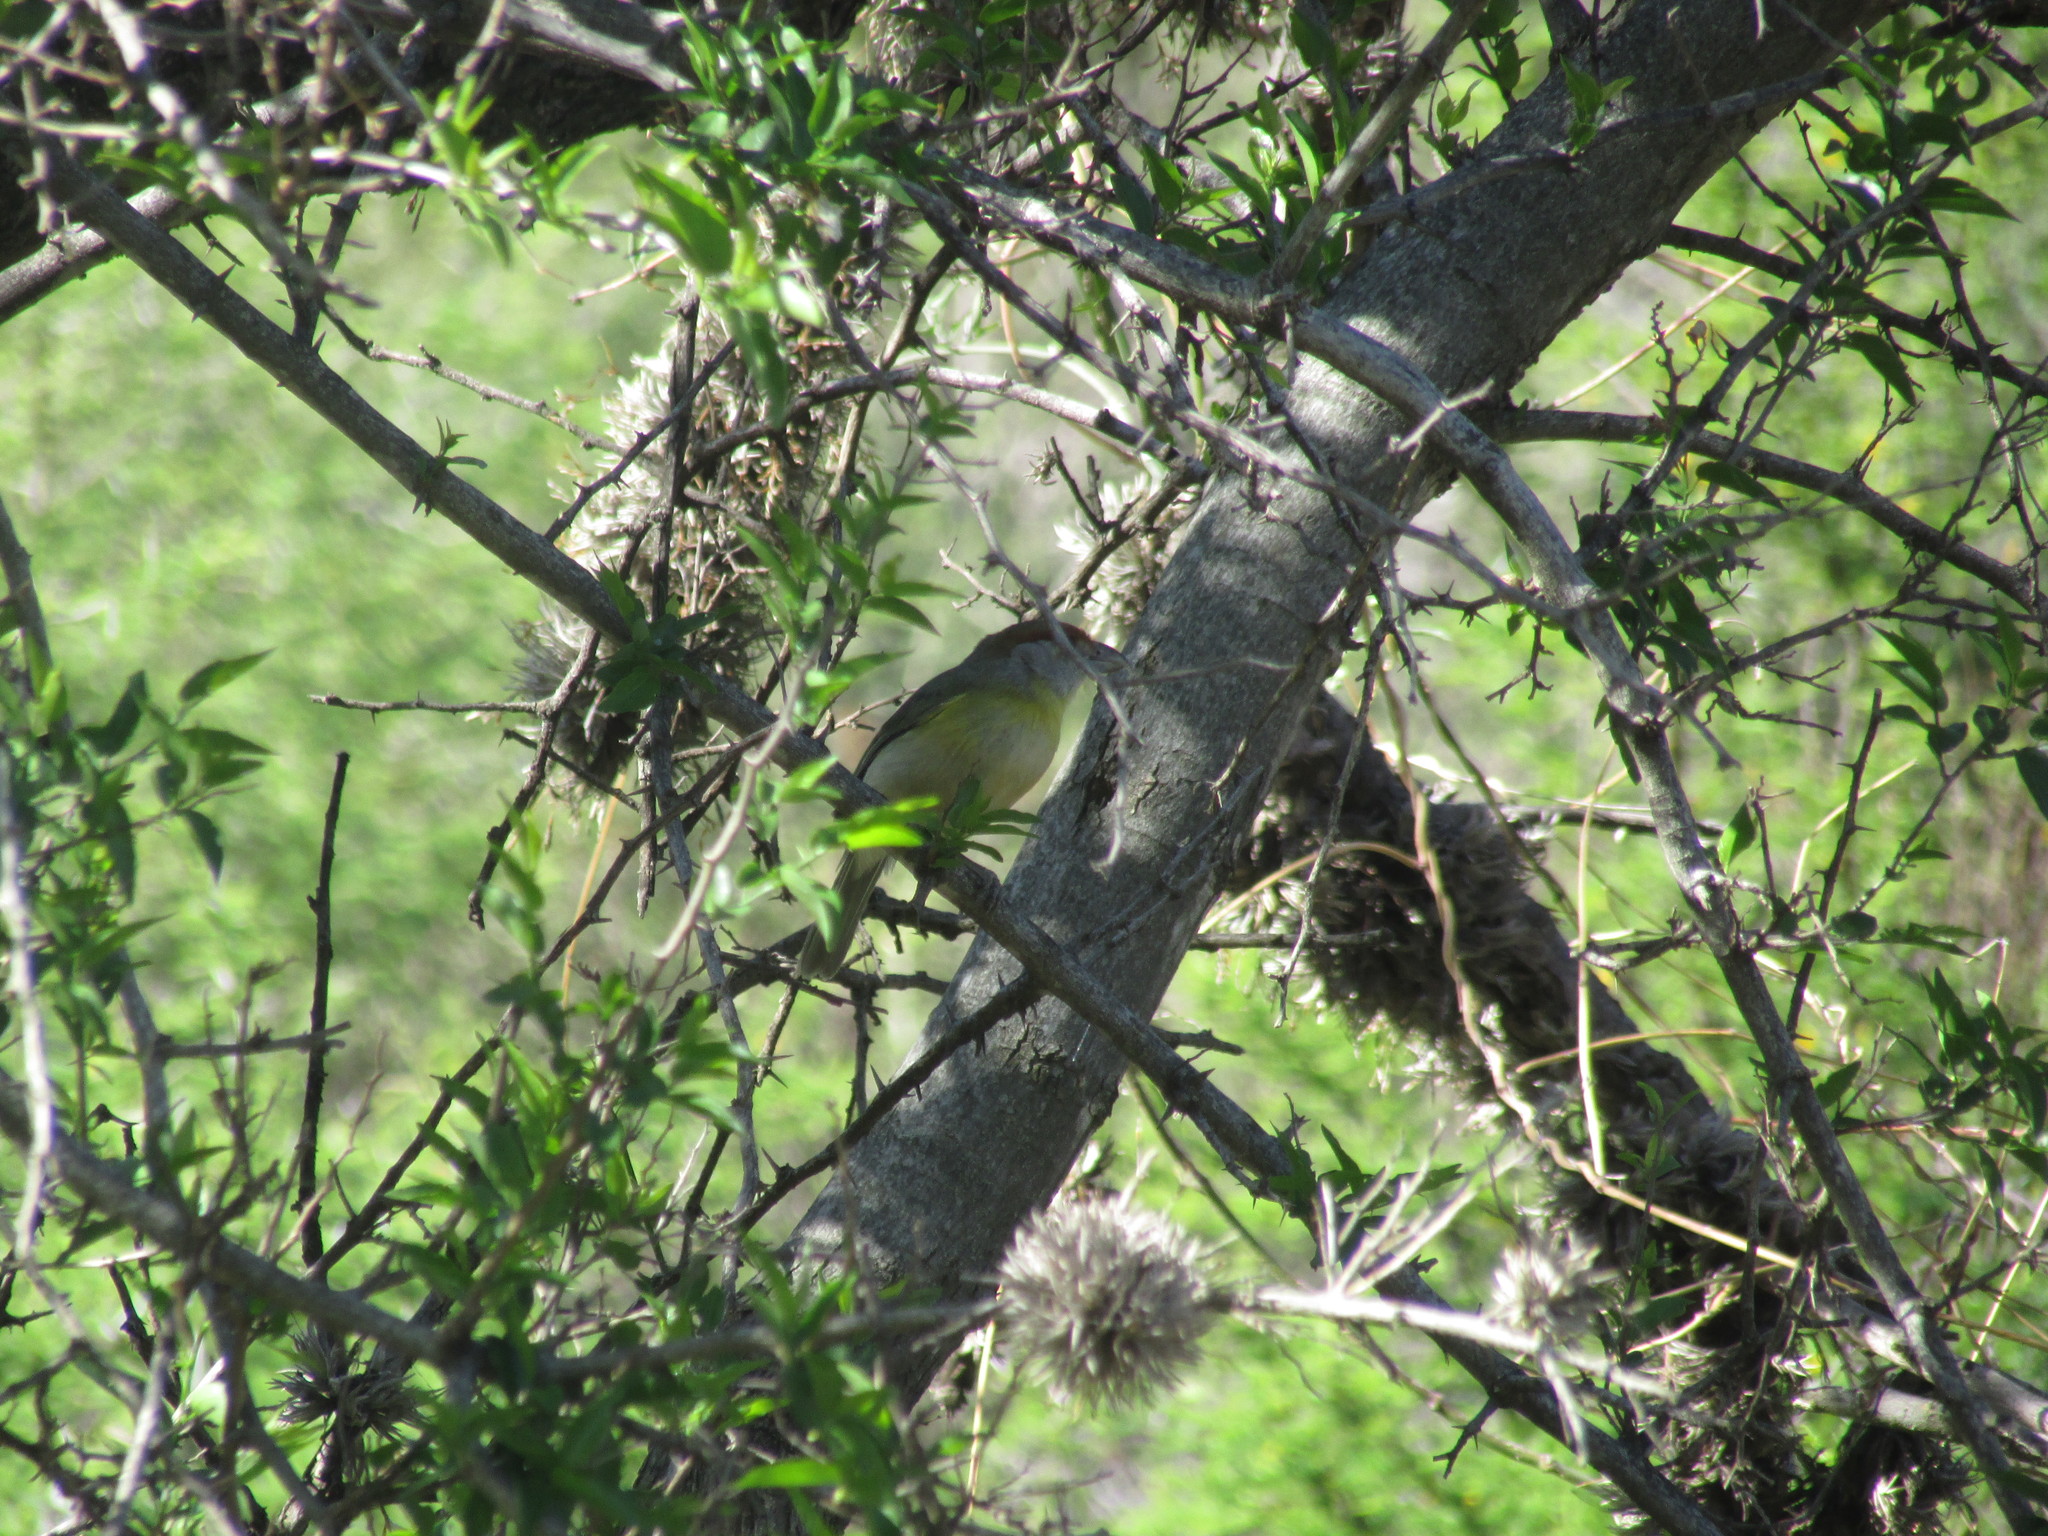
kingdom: Animalia
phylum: Chordata
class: Aves
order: Passeriformes
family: Vireonidae
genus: Cyclarhis
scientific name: Cyclarhis gujanensis
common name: Rufous-browed peppershrike
